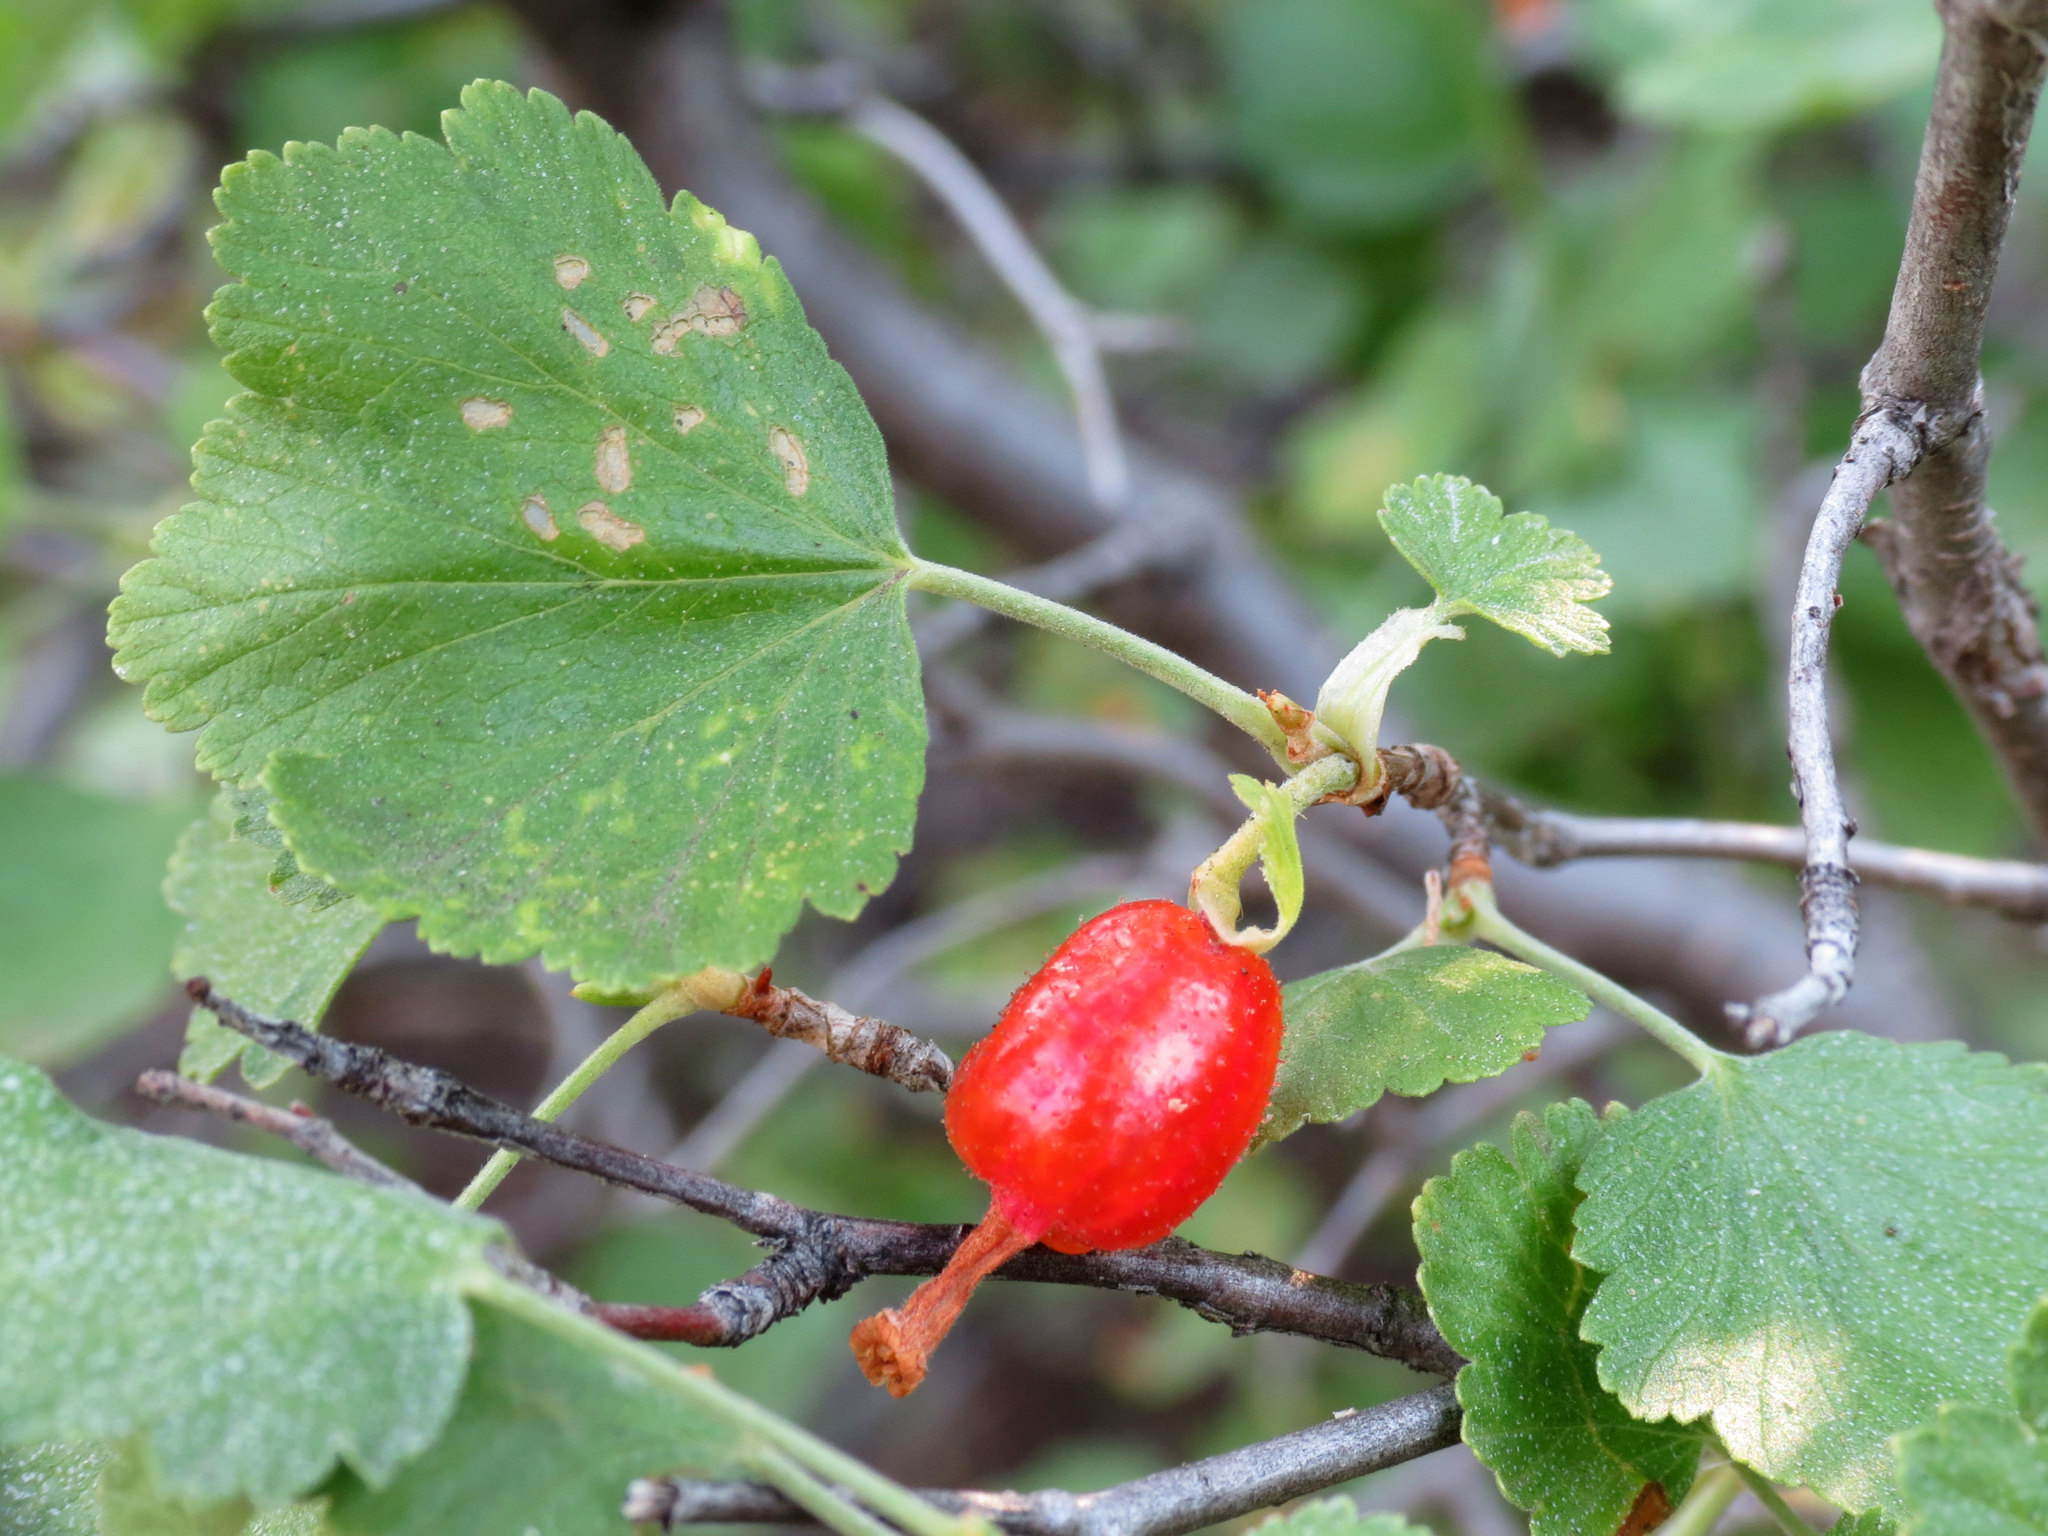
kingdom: Plantae
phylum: Tracheophyta
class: Magnoliopsida
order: Saxifragales
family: Grossulariaceae
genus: Ribes
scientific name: Ribes cereum
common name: Wax currant
